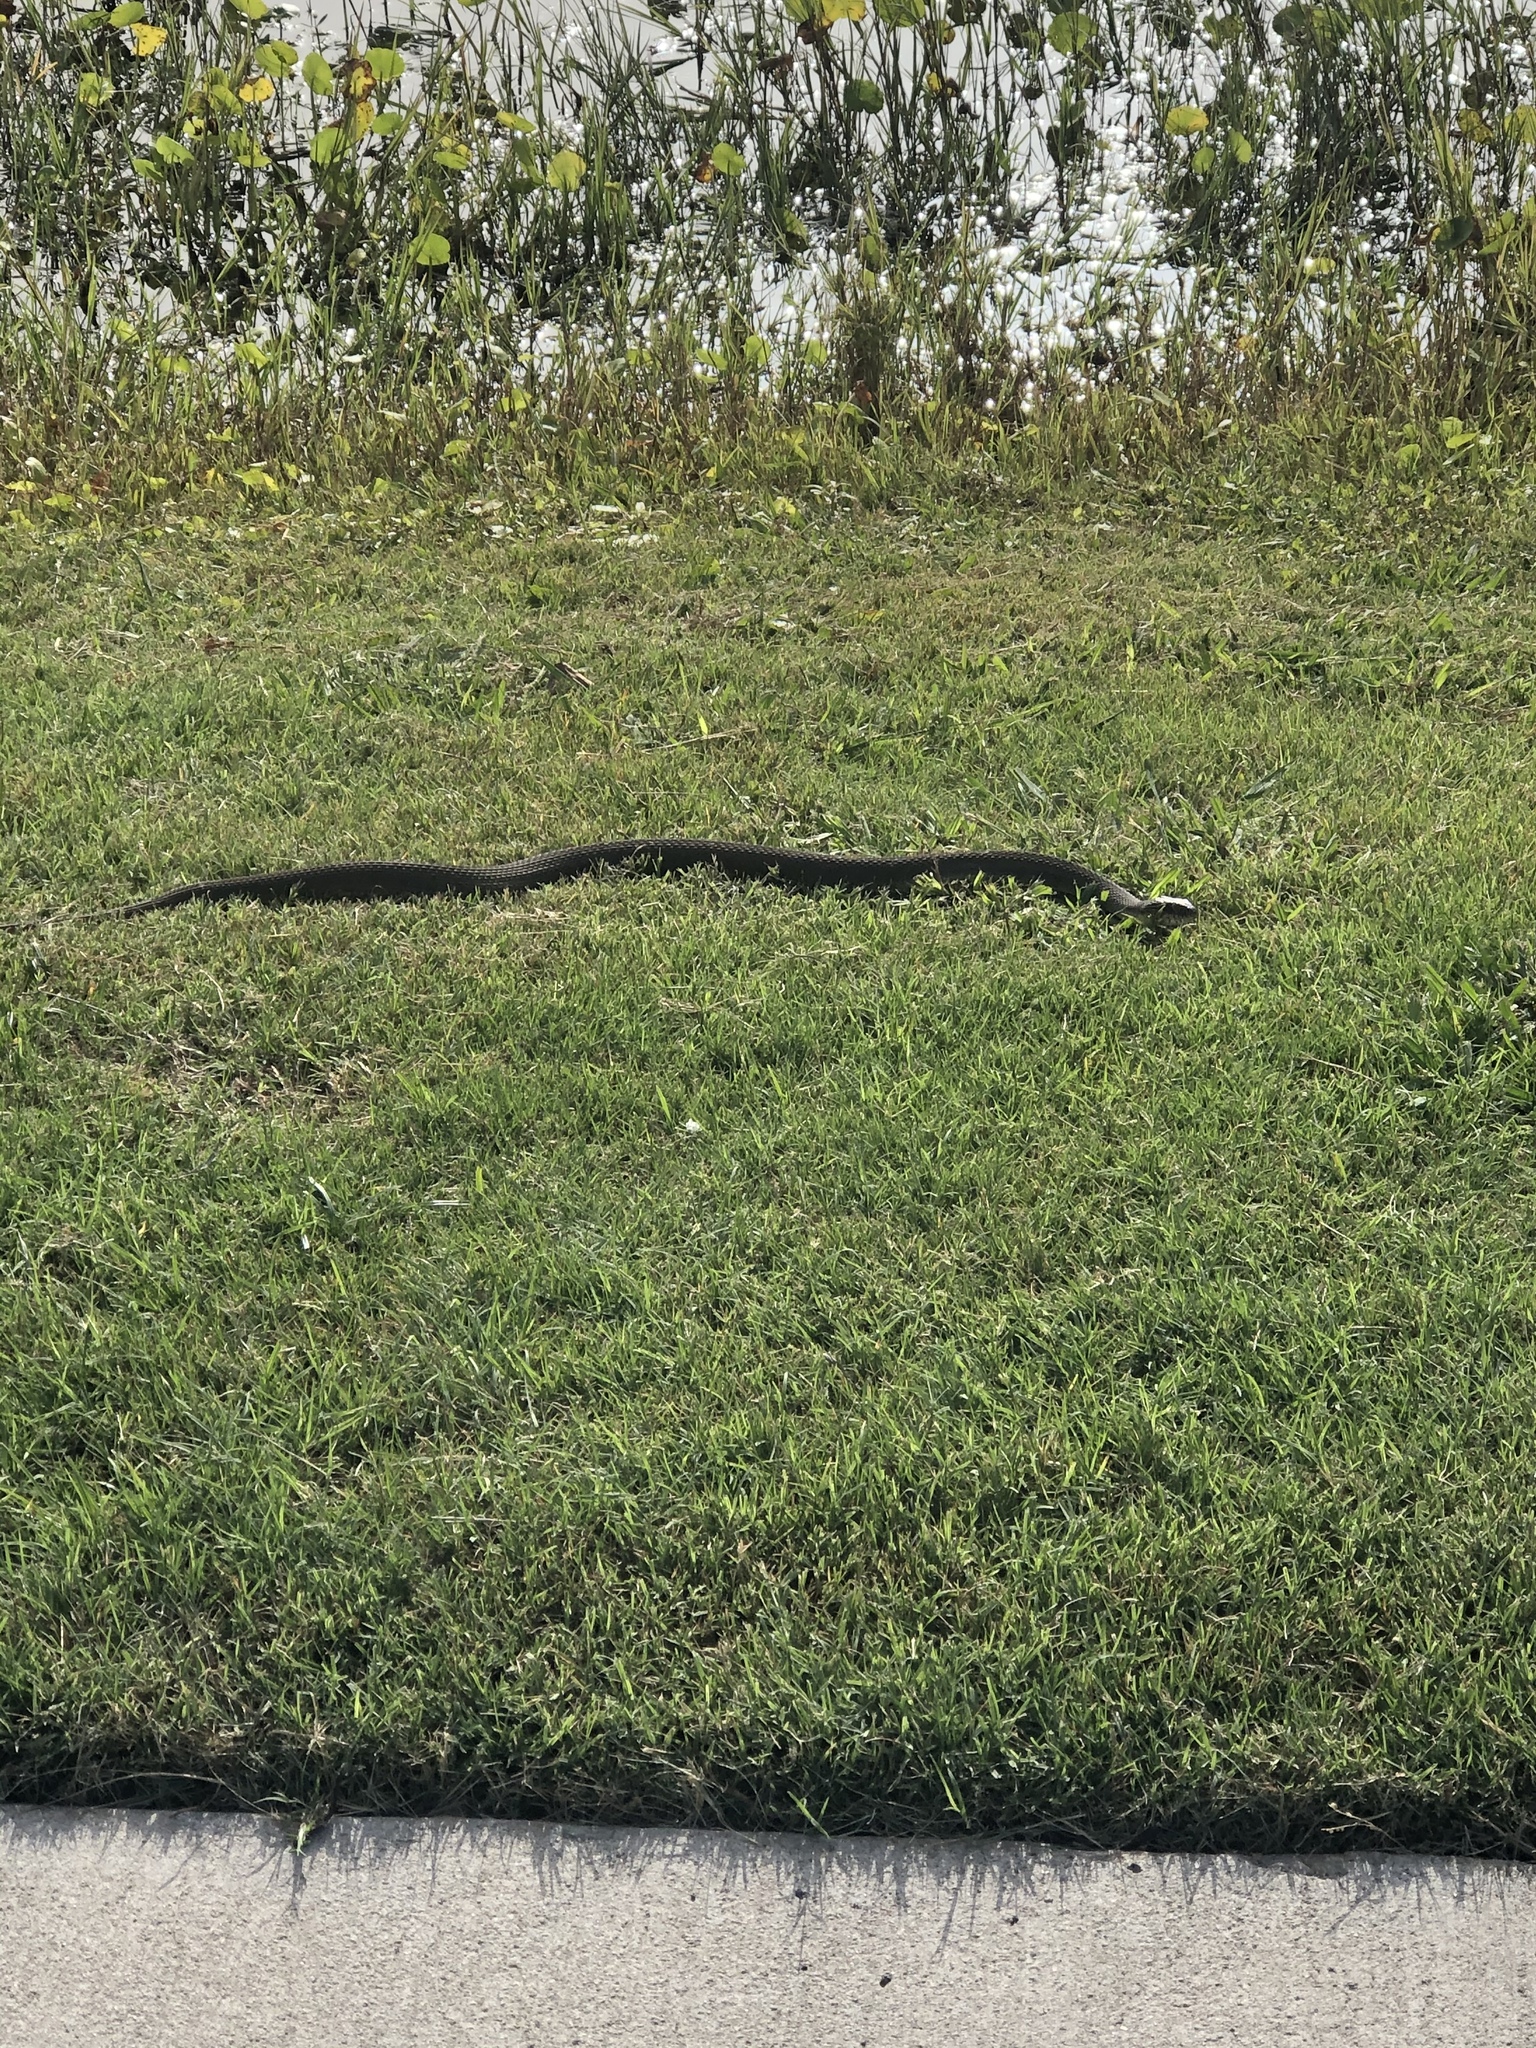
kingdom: Animalia
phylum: Chordata
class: Squamata
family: Colubridae
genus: Nerodia
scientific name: Nerodia erythrogaster
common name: Plainbelly water snake
